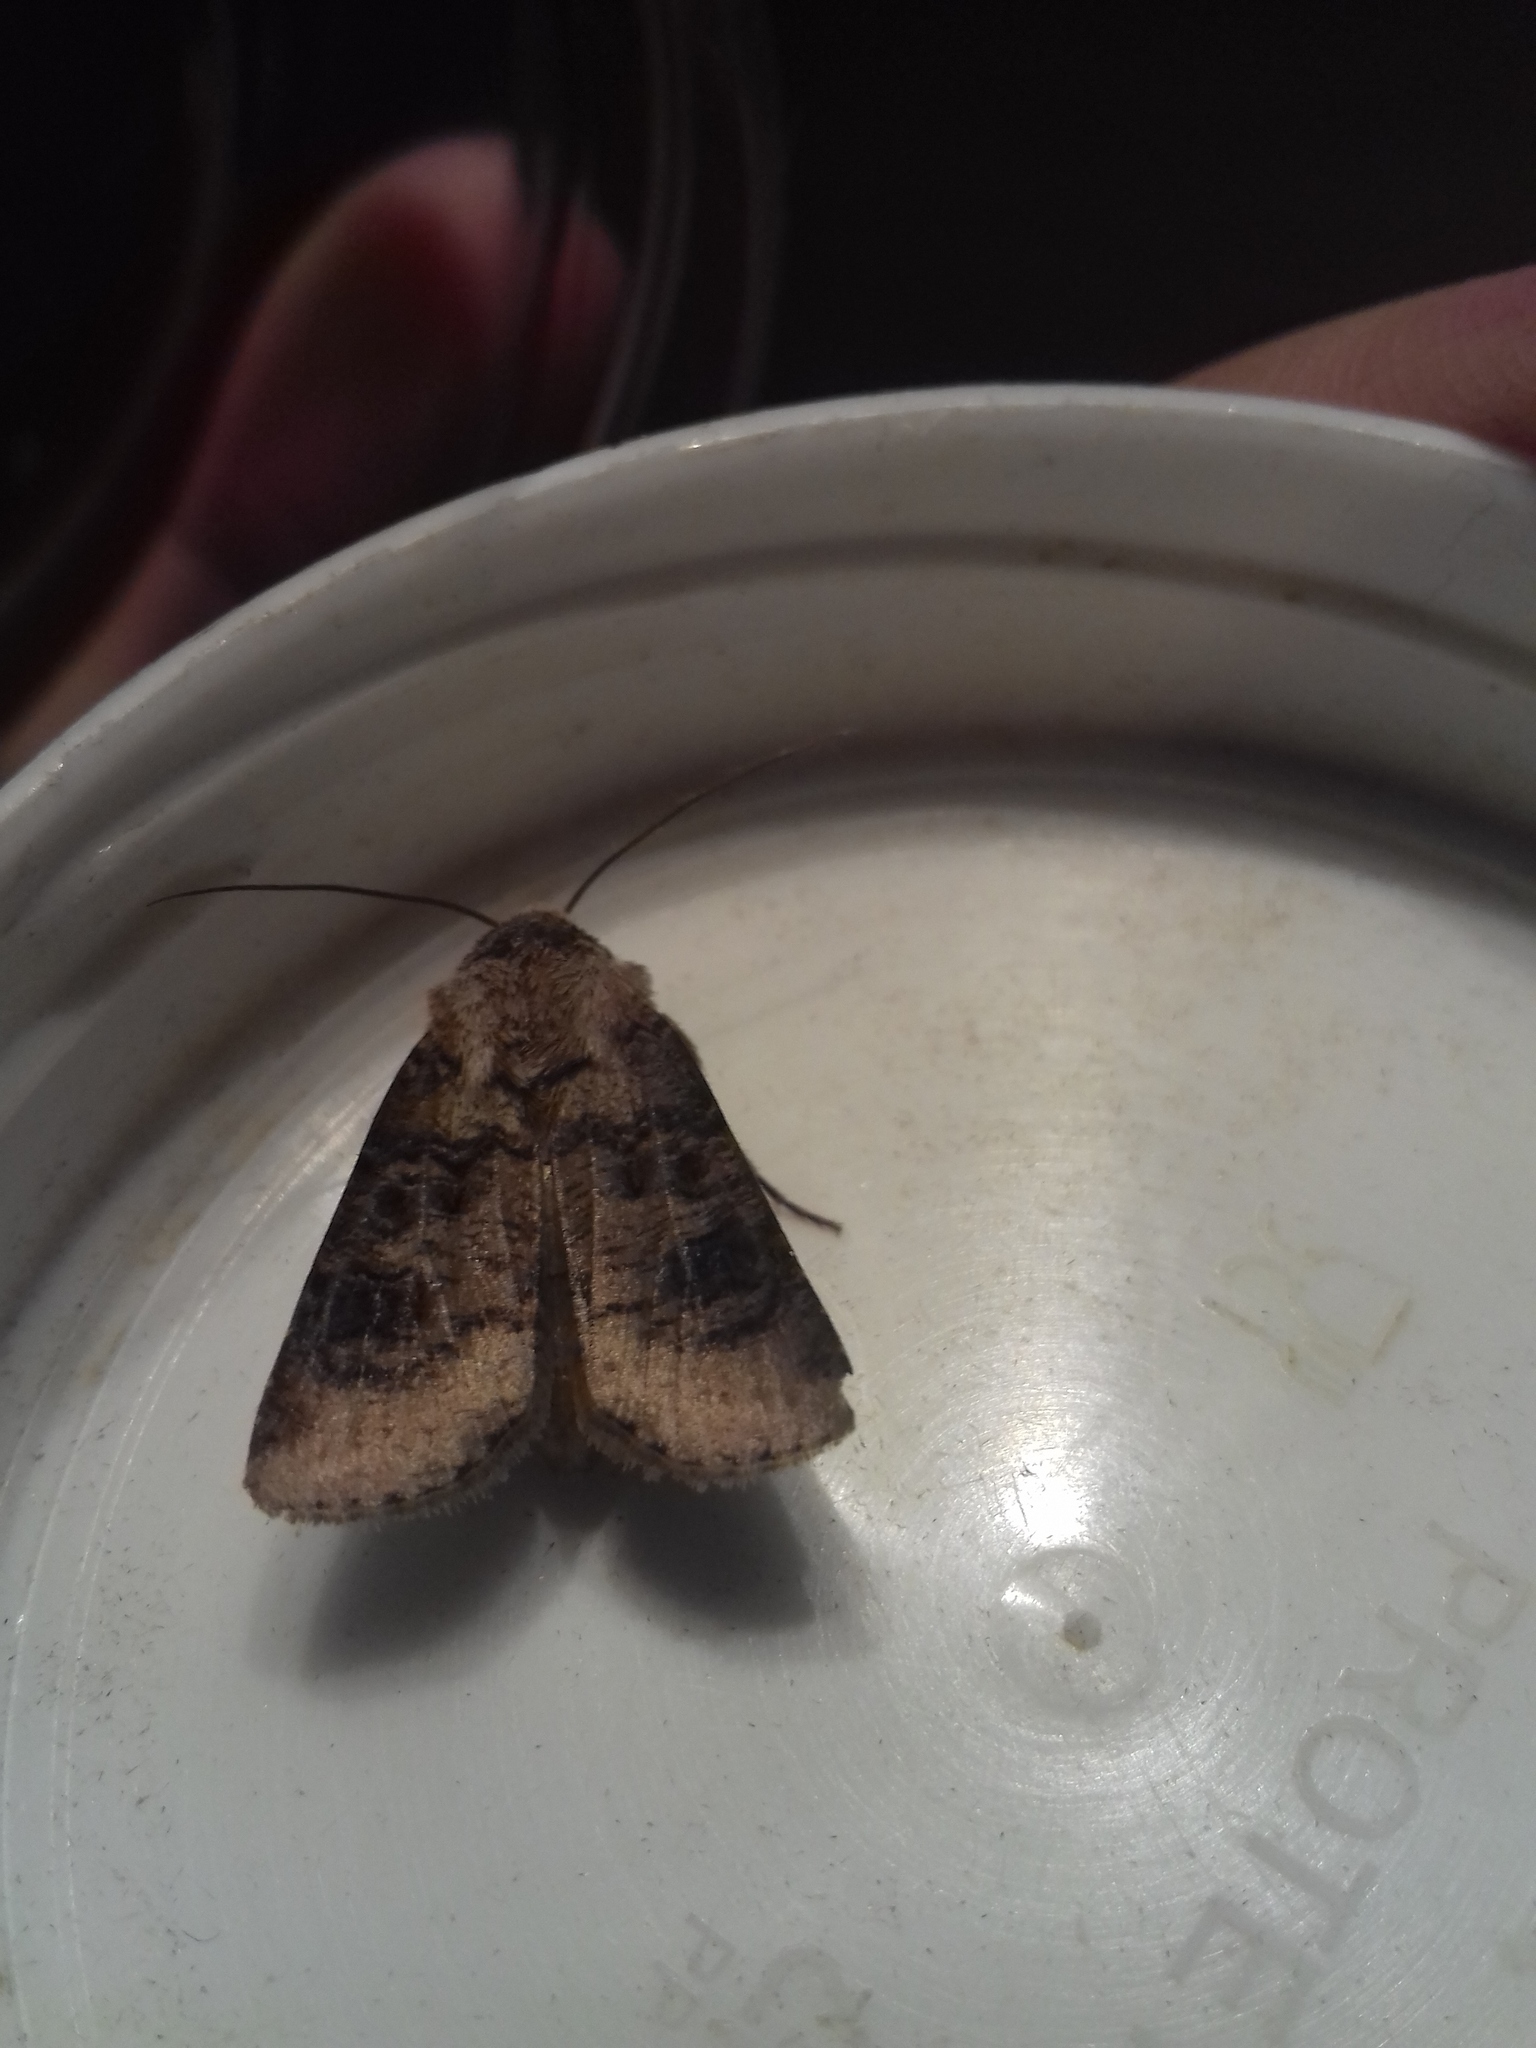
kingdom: Animalia
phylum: Arthropoda
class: Insecta
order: Lepidoptera
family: Noctuidae
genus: Agrotis
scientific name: Agrotis clavis
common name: Heart and club
